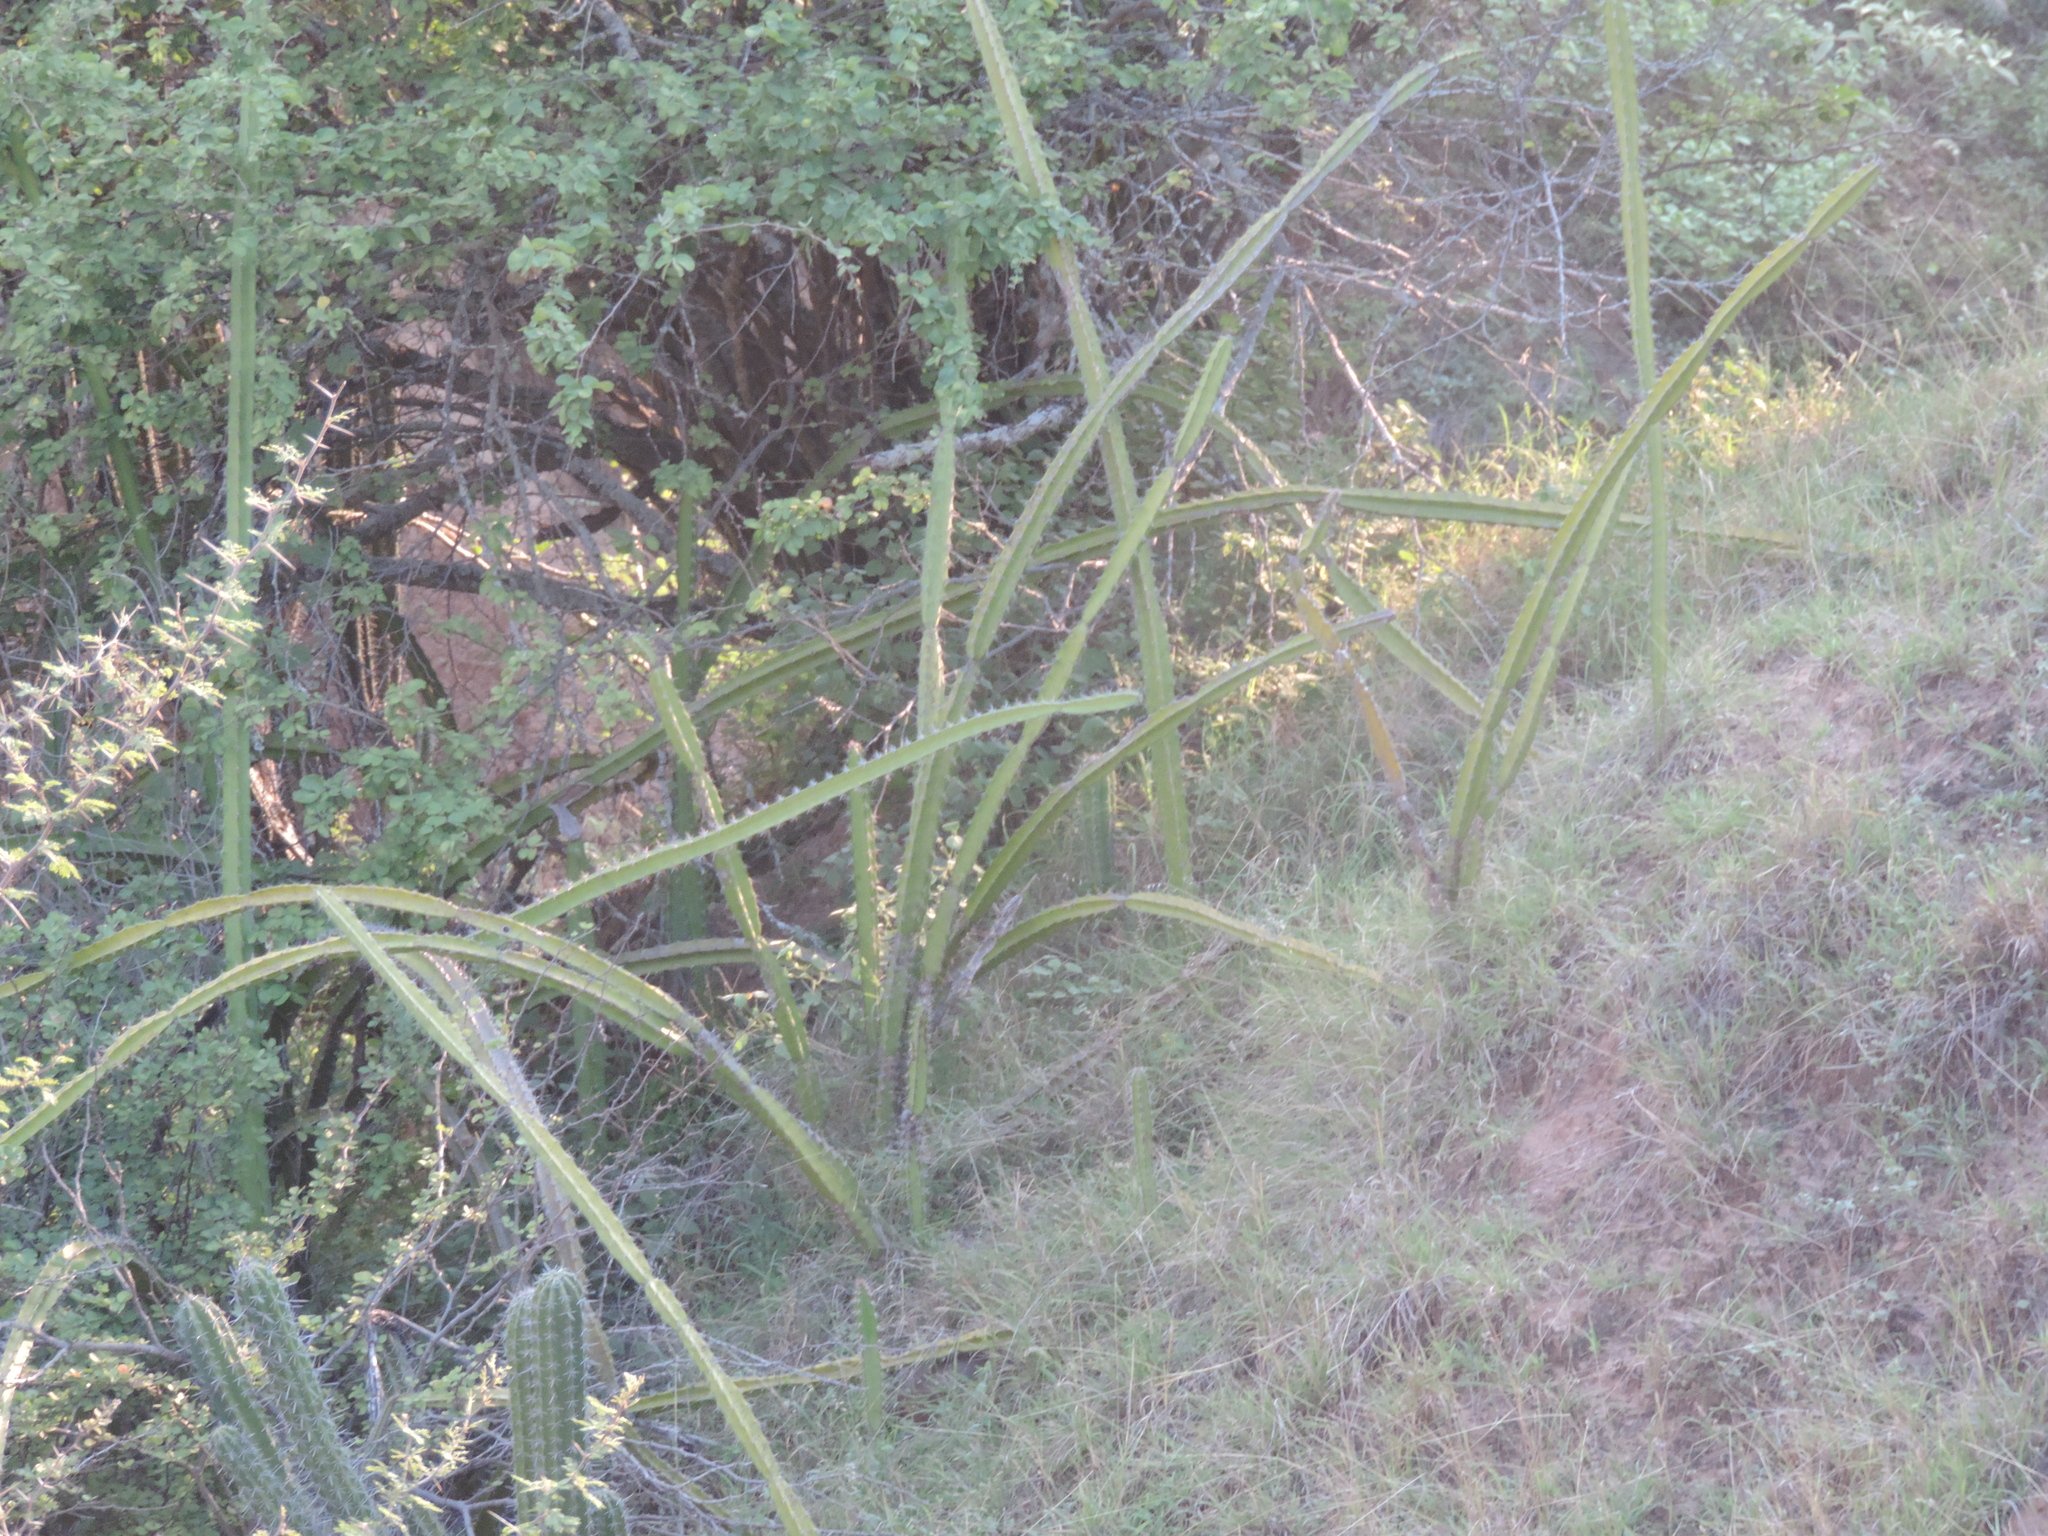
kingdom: Plantae
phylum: Tracheophyta
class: Magnoliopsida
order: Caryophyllales
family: Cactaceae
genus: Acanthocereus
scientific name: Acanthocereus tetragonus
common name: Triangle cactus
